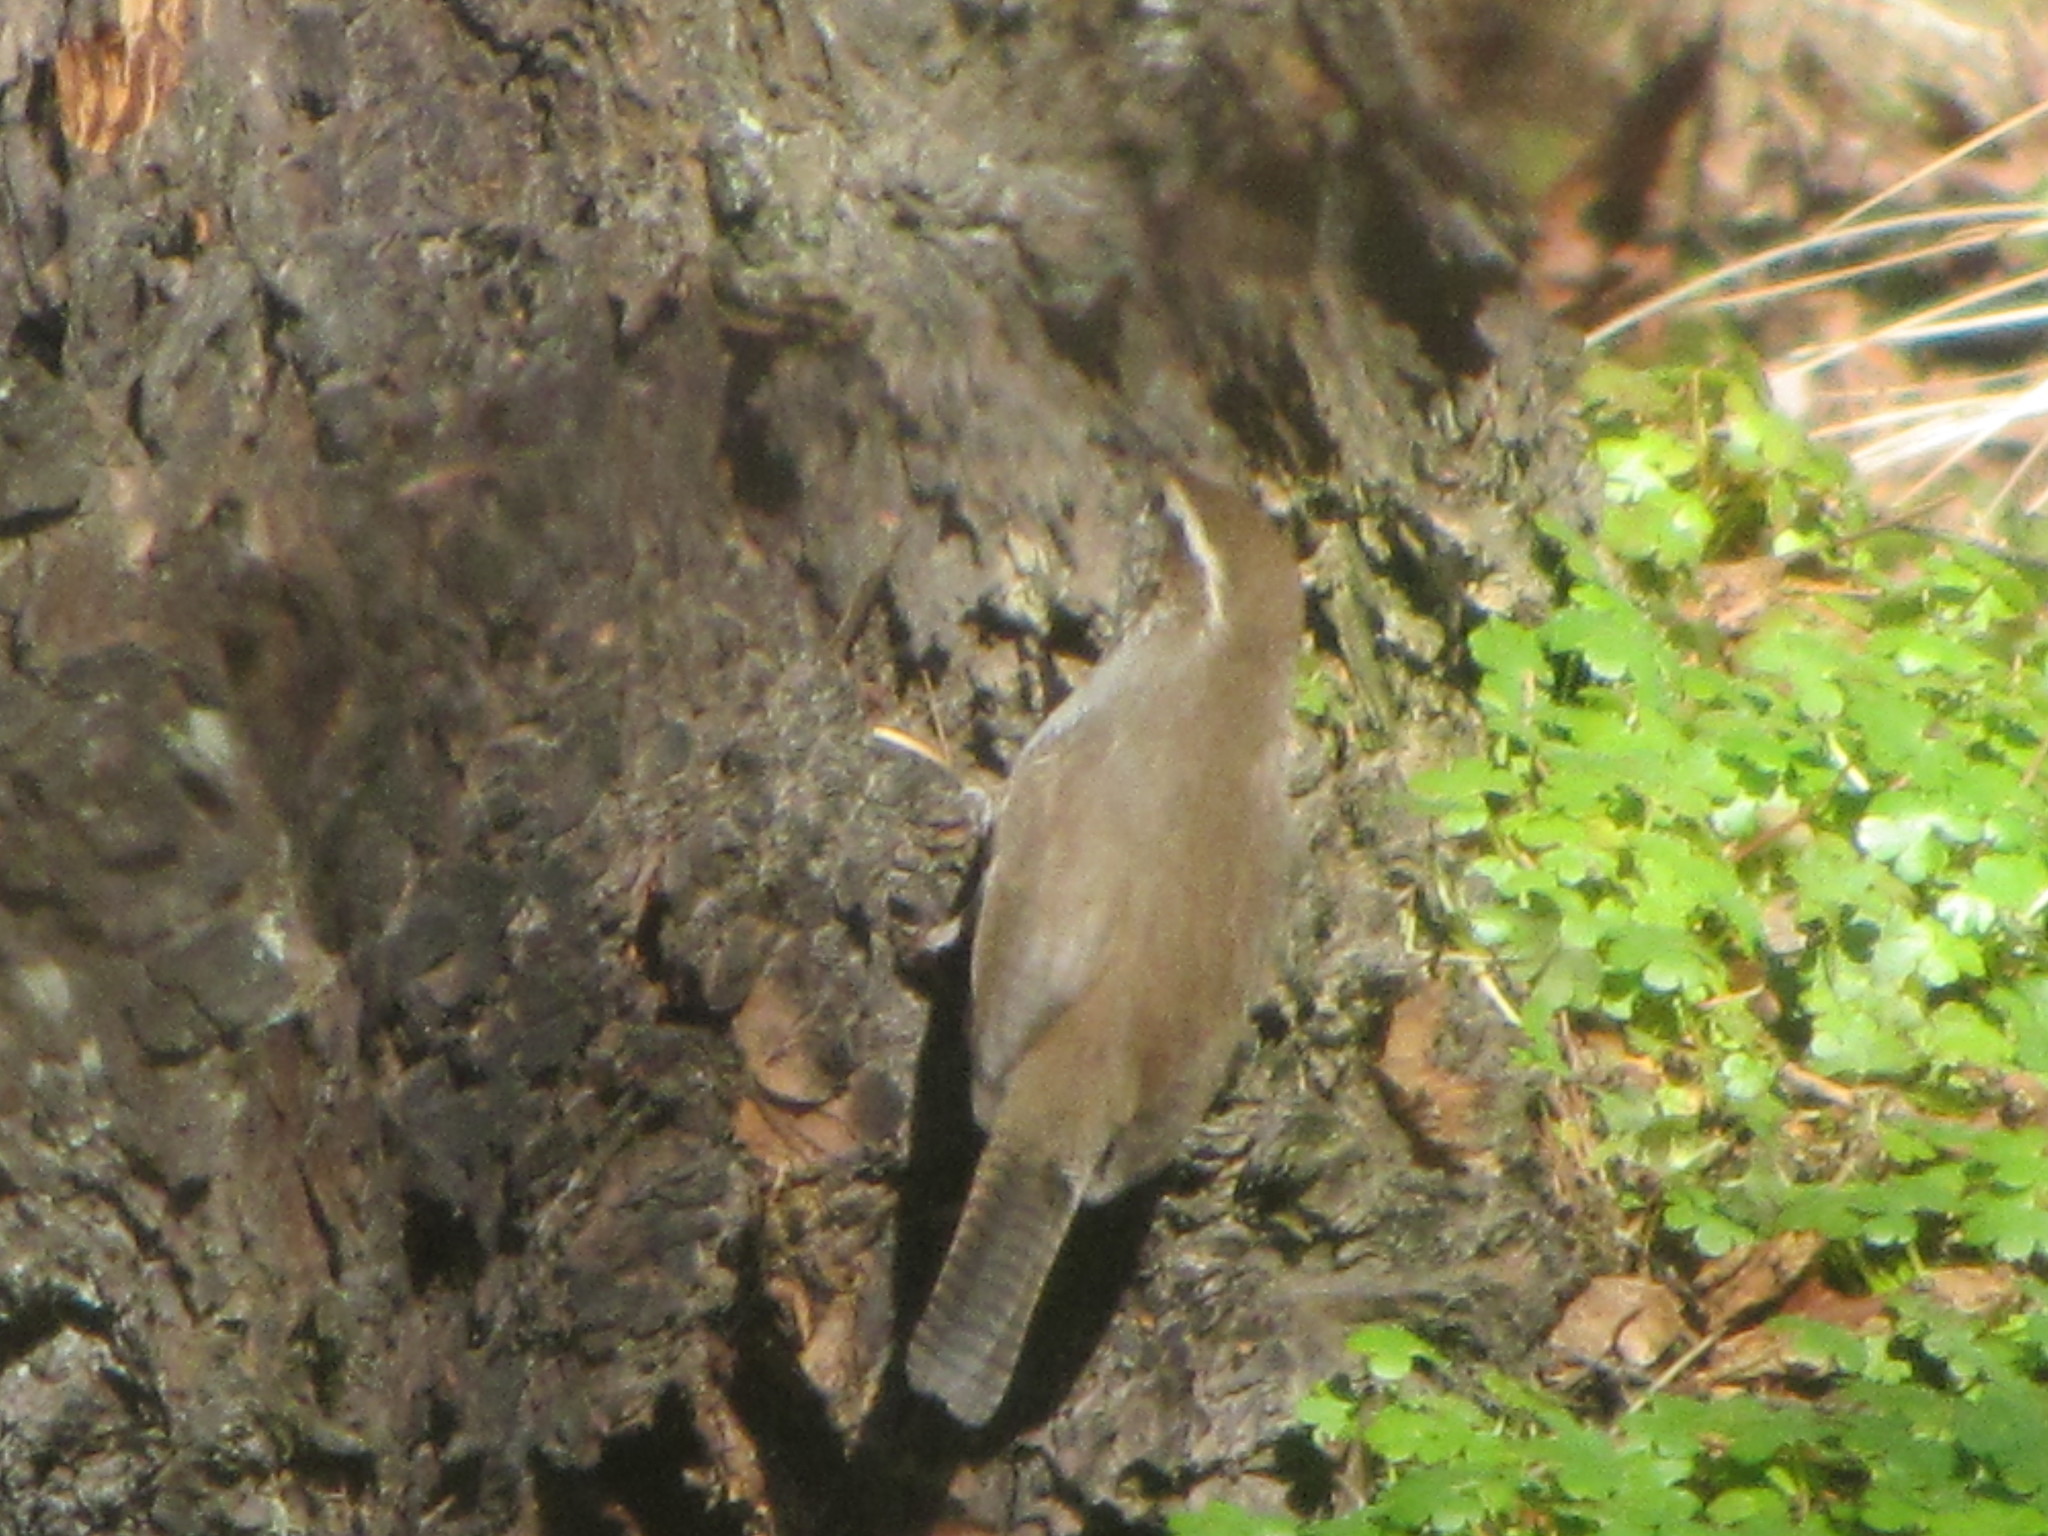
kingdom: Animalia
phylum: Chordata
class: Aves
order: Passeriformes
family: Troglodytidae
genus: Thryomanes
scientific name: Thryomanes bewickii
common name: Bewick's wren
